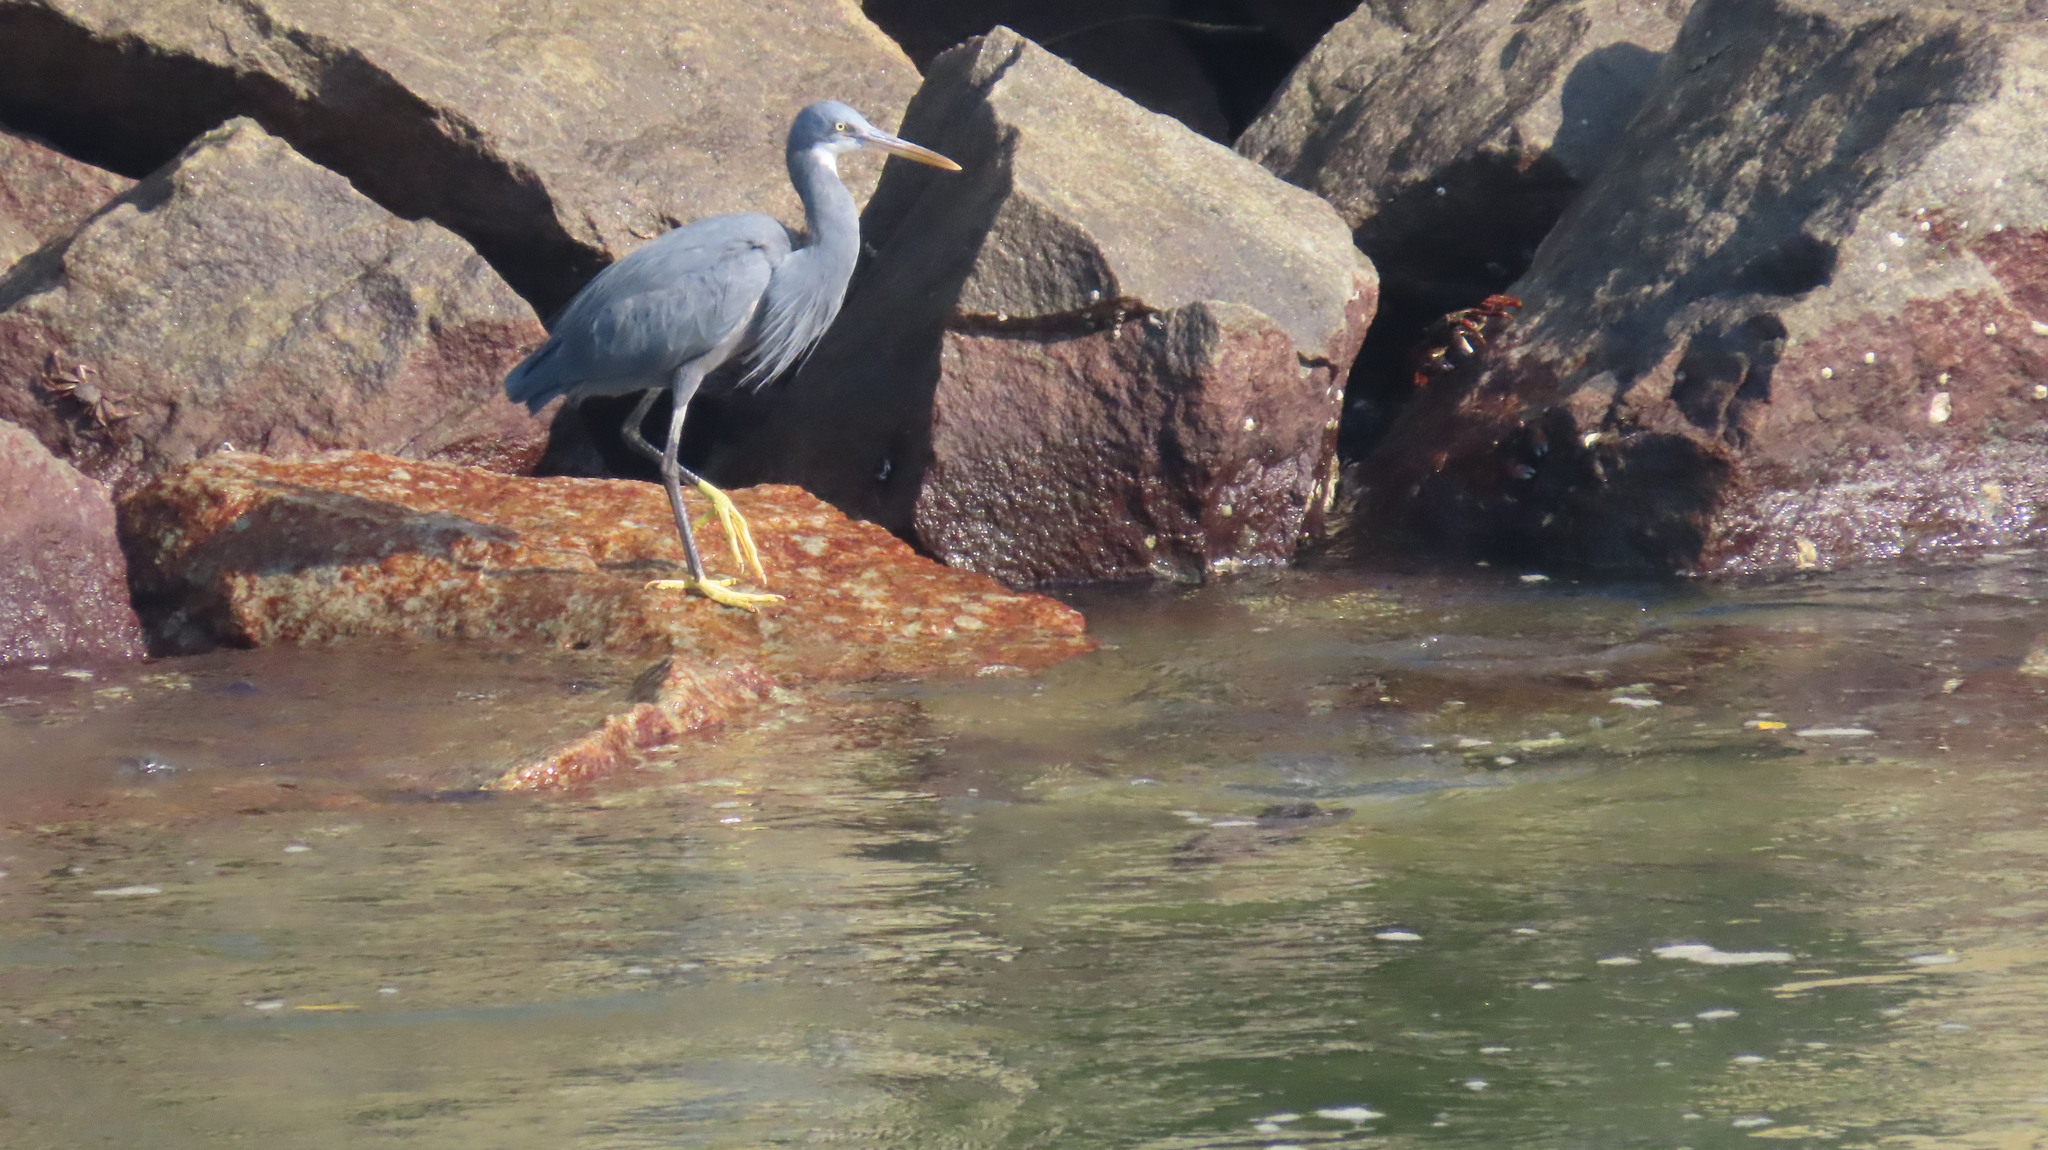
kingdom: Animalia
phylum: Chordata
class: Aves
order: Pelecaniformes
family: Ardeidae
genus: Egretta
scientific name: Egretta gularis
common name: Western reef-heron
